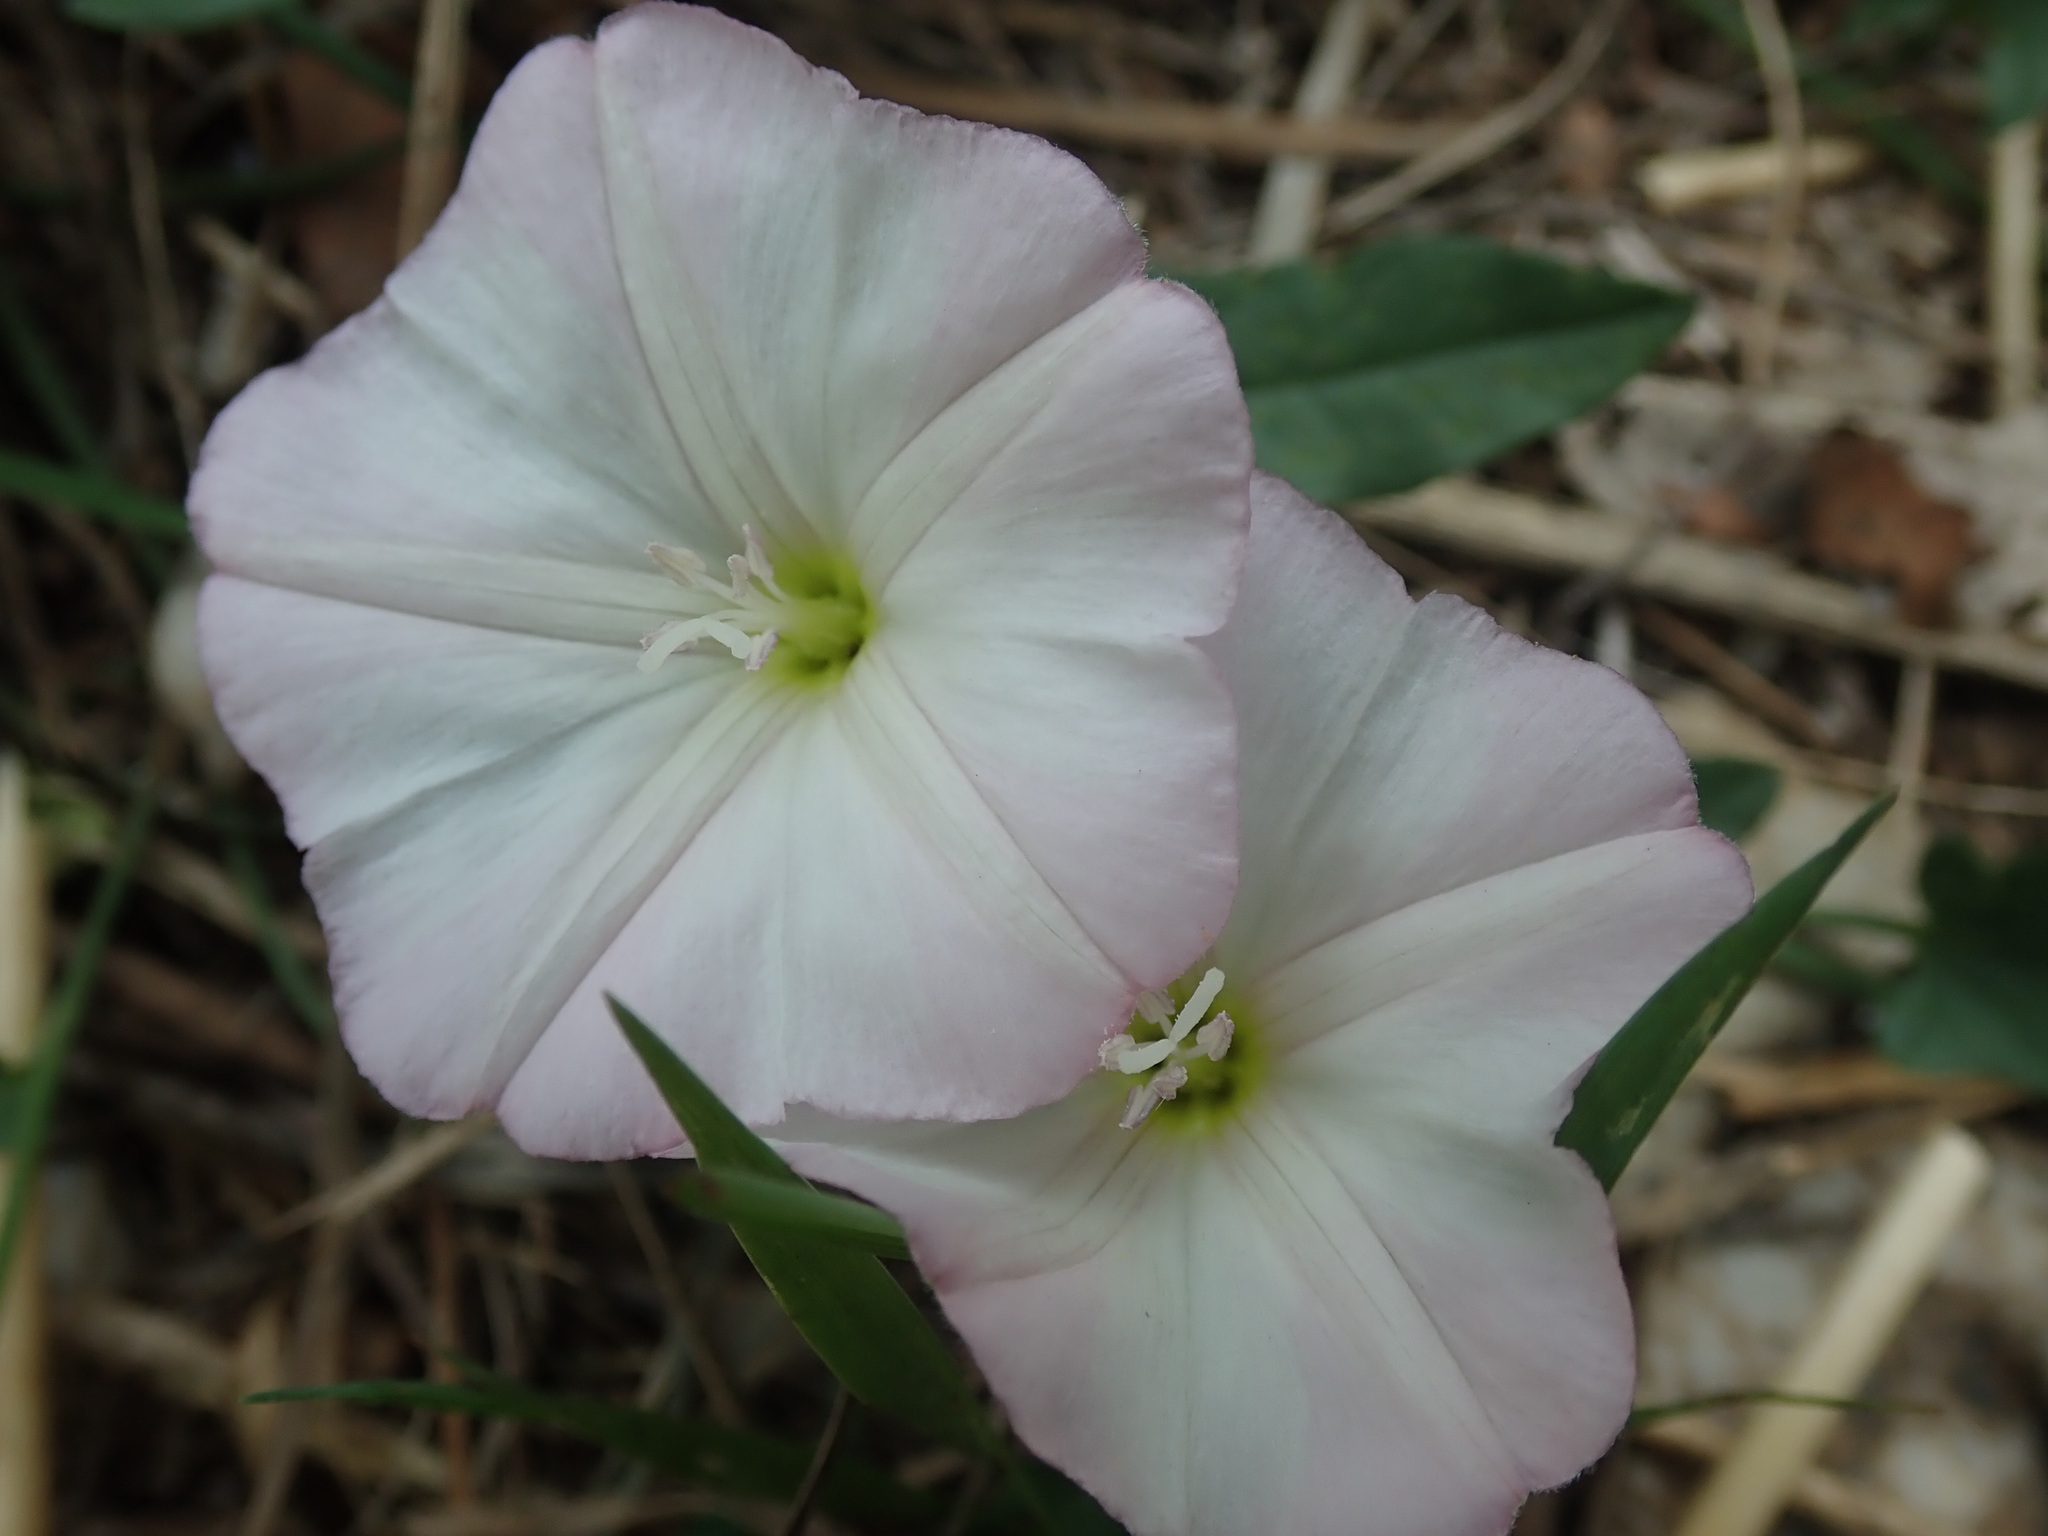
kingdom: Plantae
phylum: Tracheophyta
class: Magnoliopsida
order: Solanales
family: Convolvulaceae
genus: Convolvulus
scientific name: Convolvulus arvensis
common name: Field bindweed
